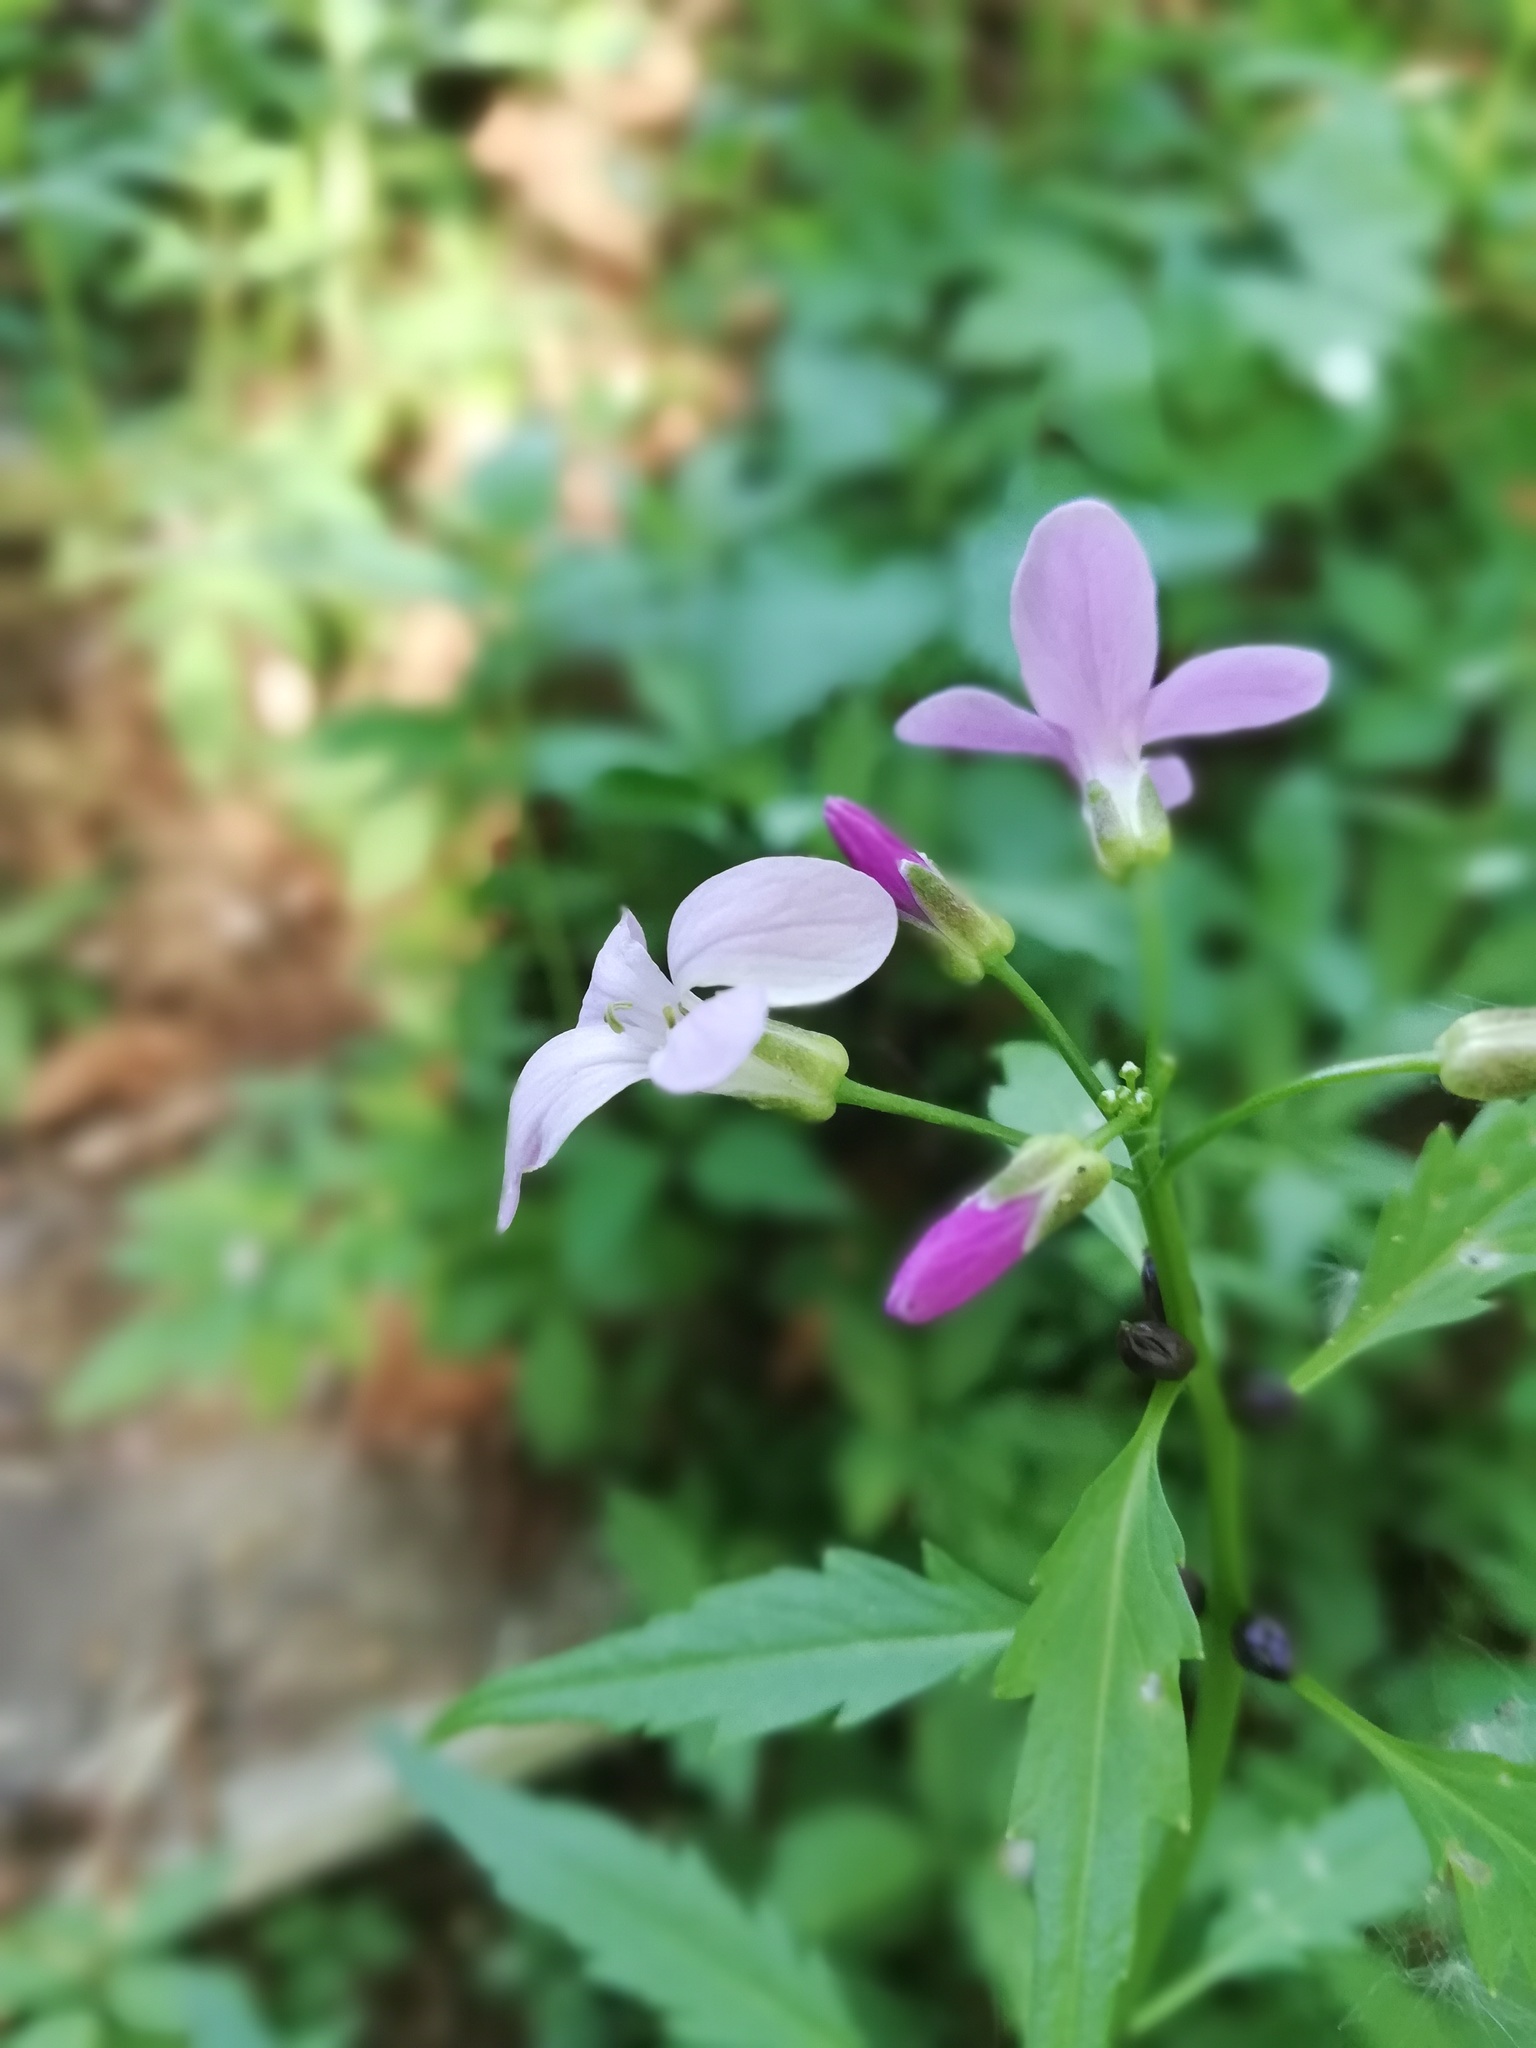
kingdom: Plantae
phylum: Tracheophyta
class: Magnoliopsida
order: Brassicales
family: Brassicaceae
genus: Cardamine
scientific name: Cardamine bulbifera
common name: Coralroot bittercress
